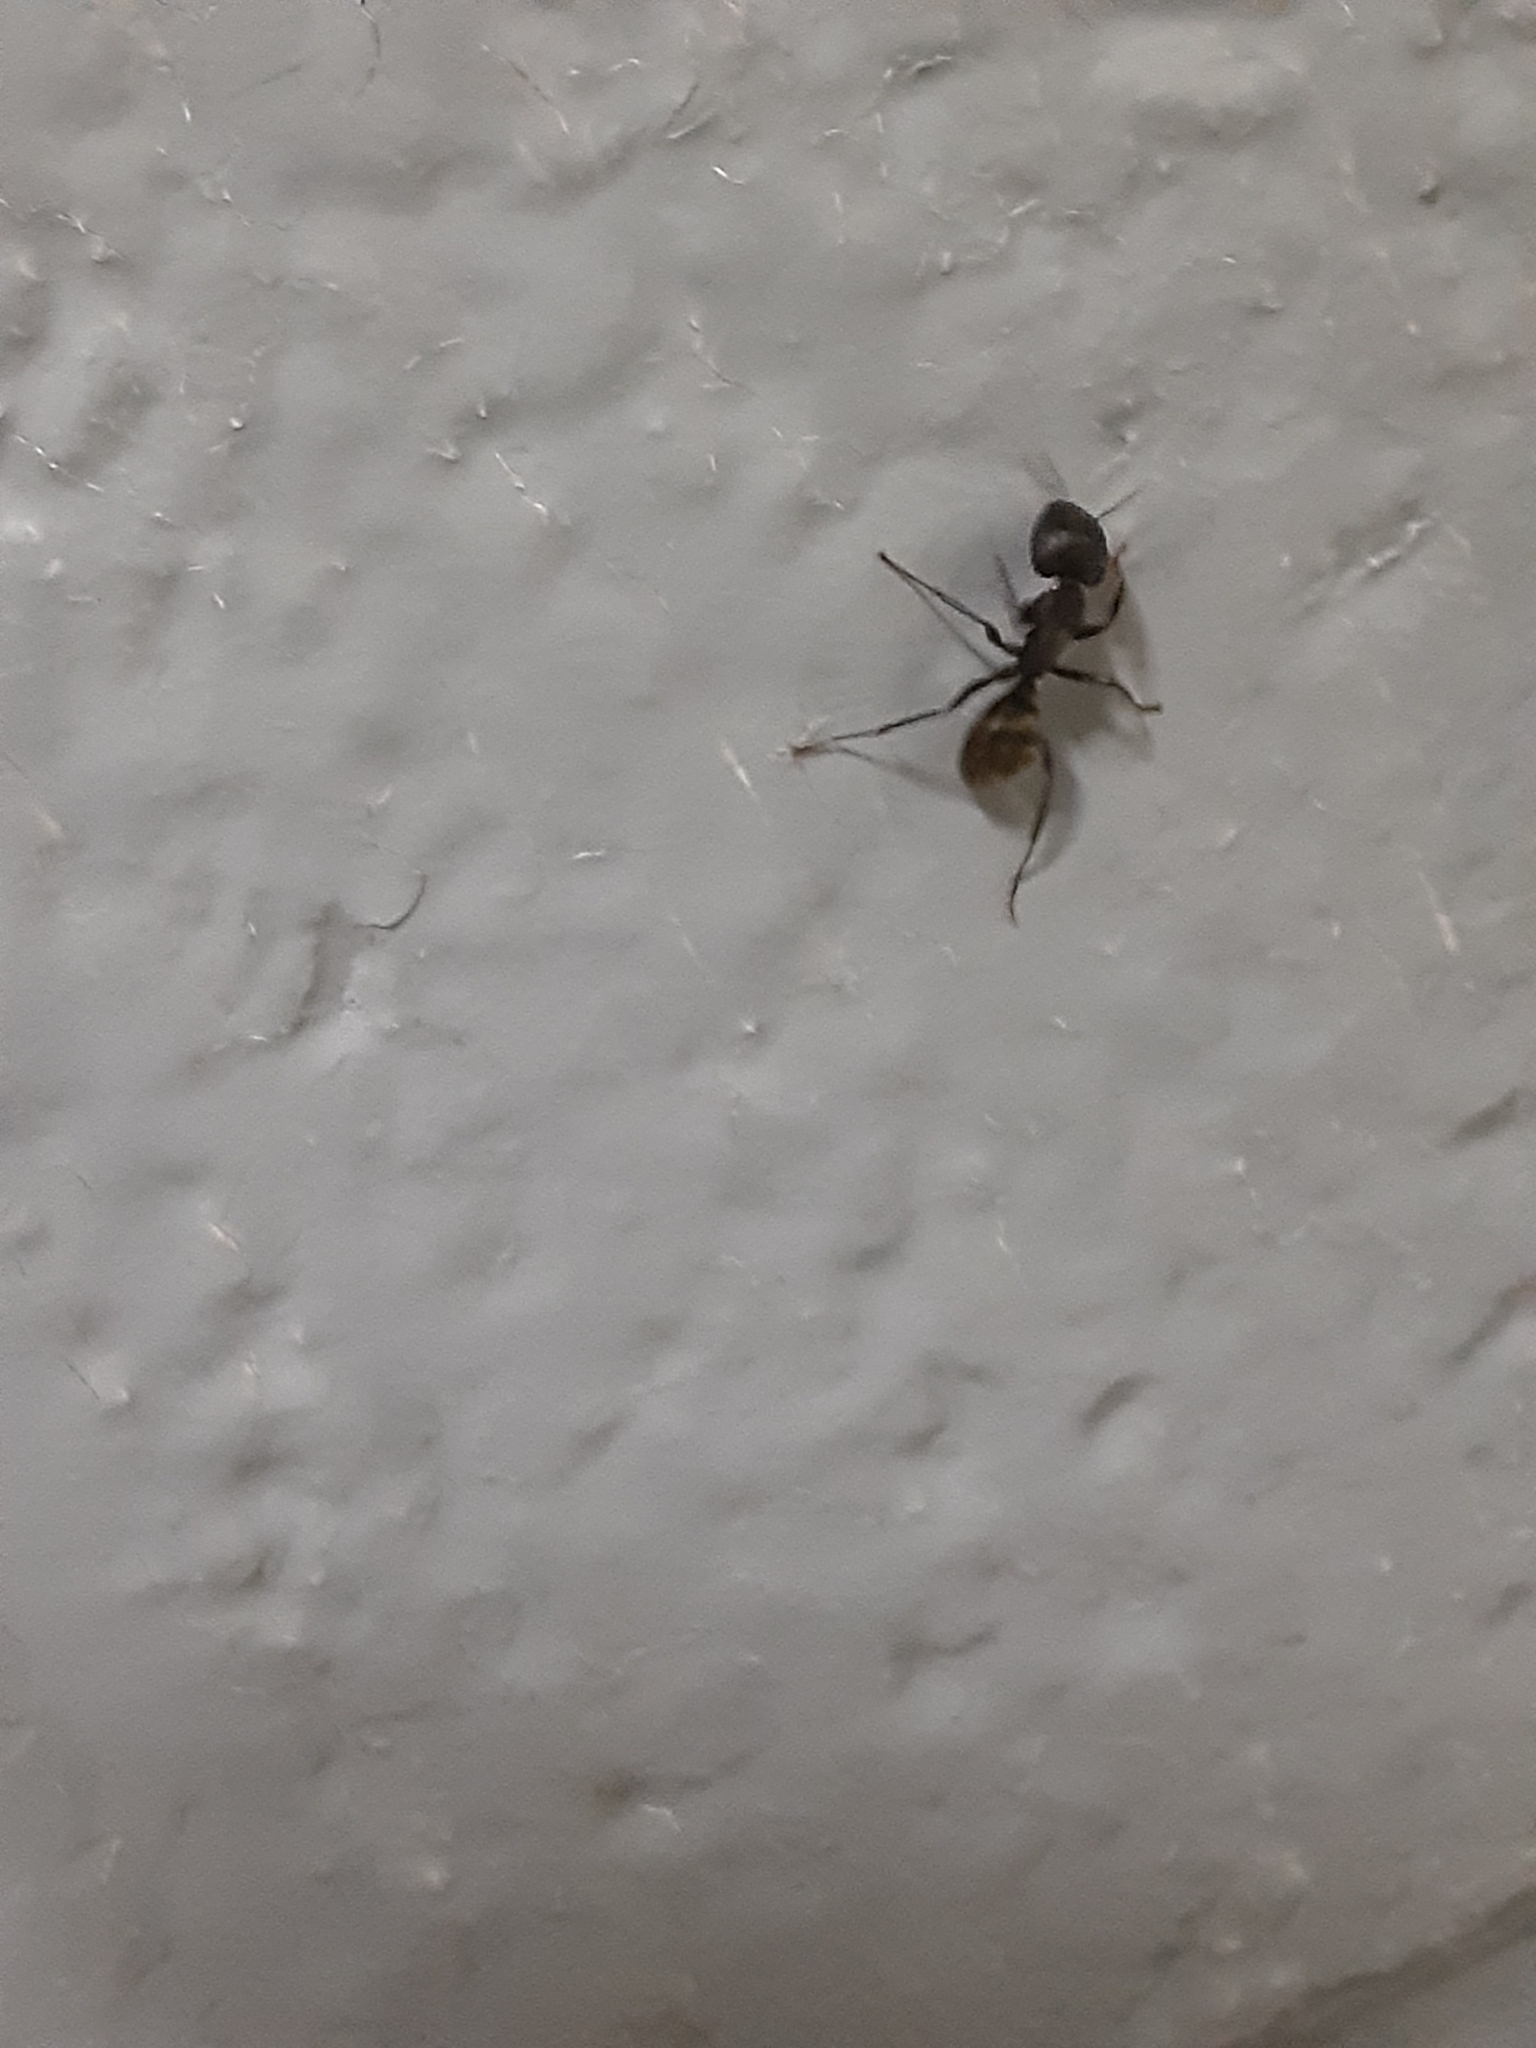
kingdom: Animalia
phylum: Arthropoda
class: Insecta
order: Hymenoptera
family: Formicidae
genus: Camponotus
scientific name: Camponotus pennsylvanicus
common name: Black carpenter ant
